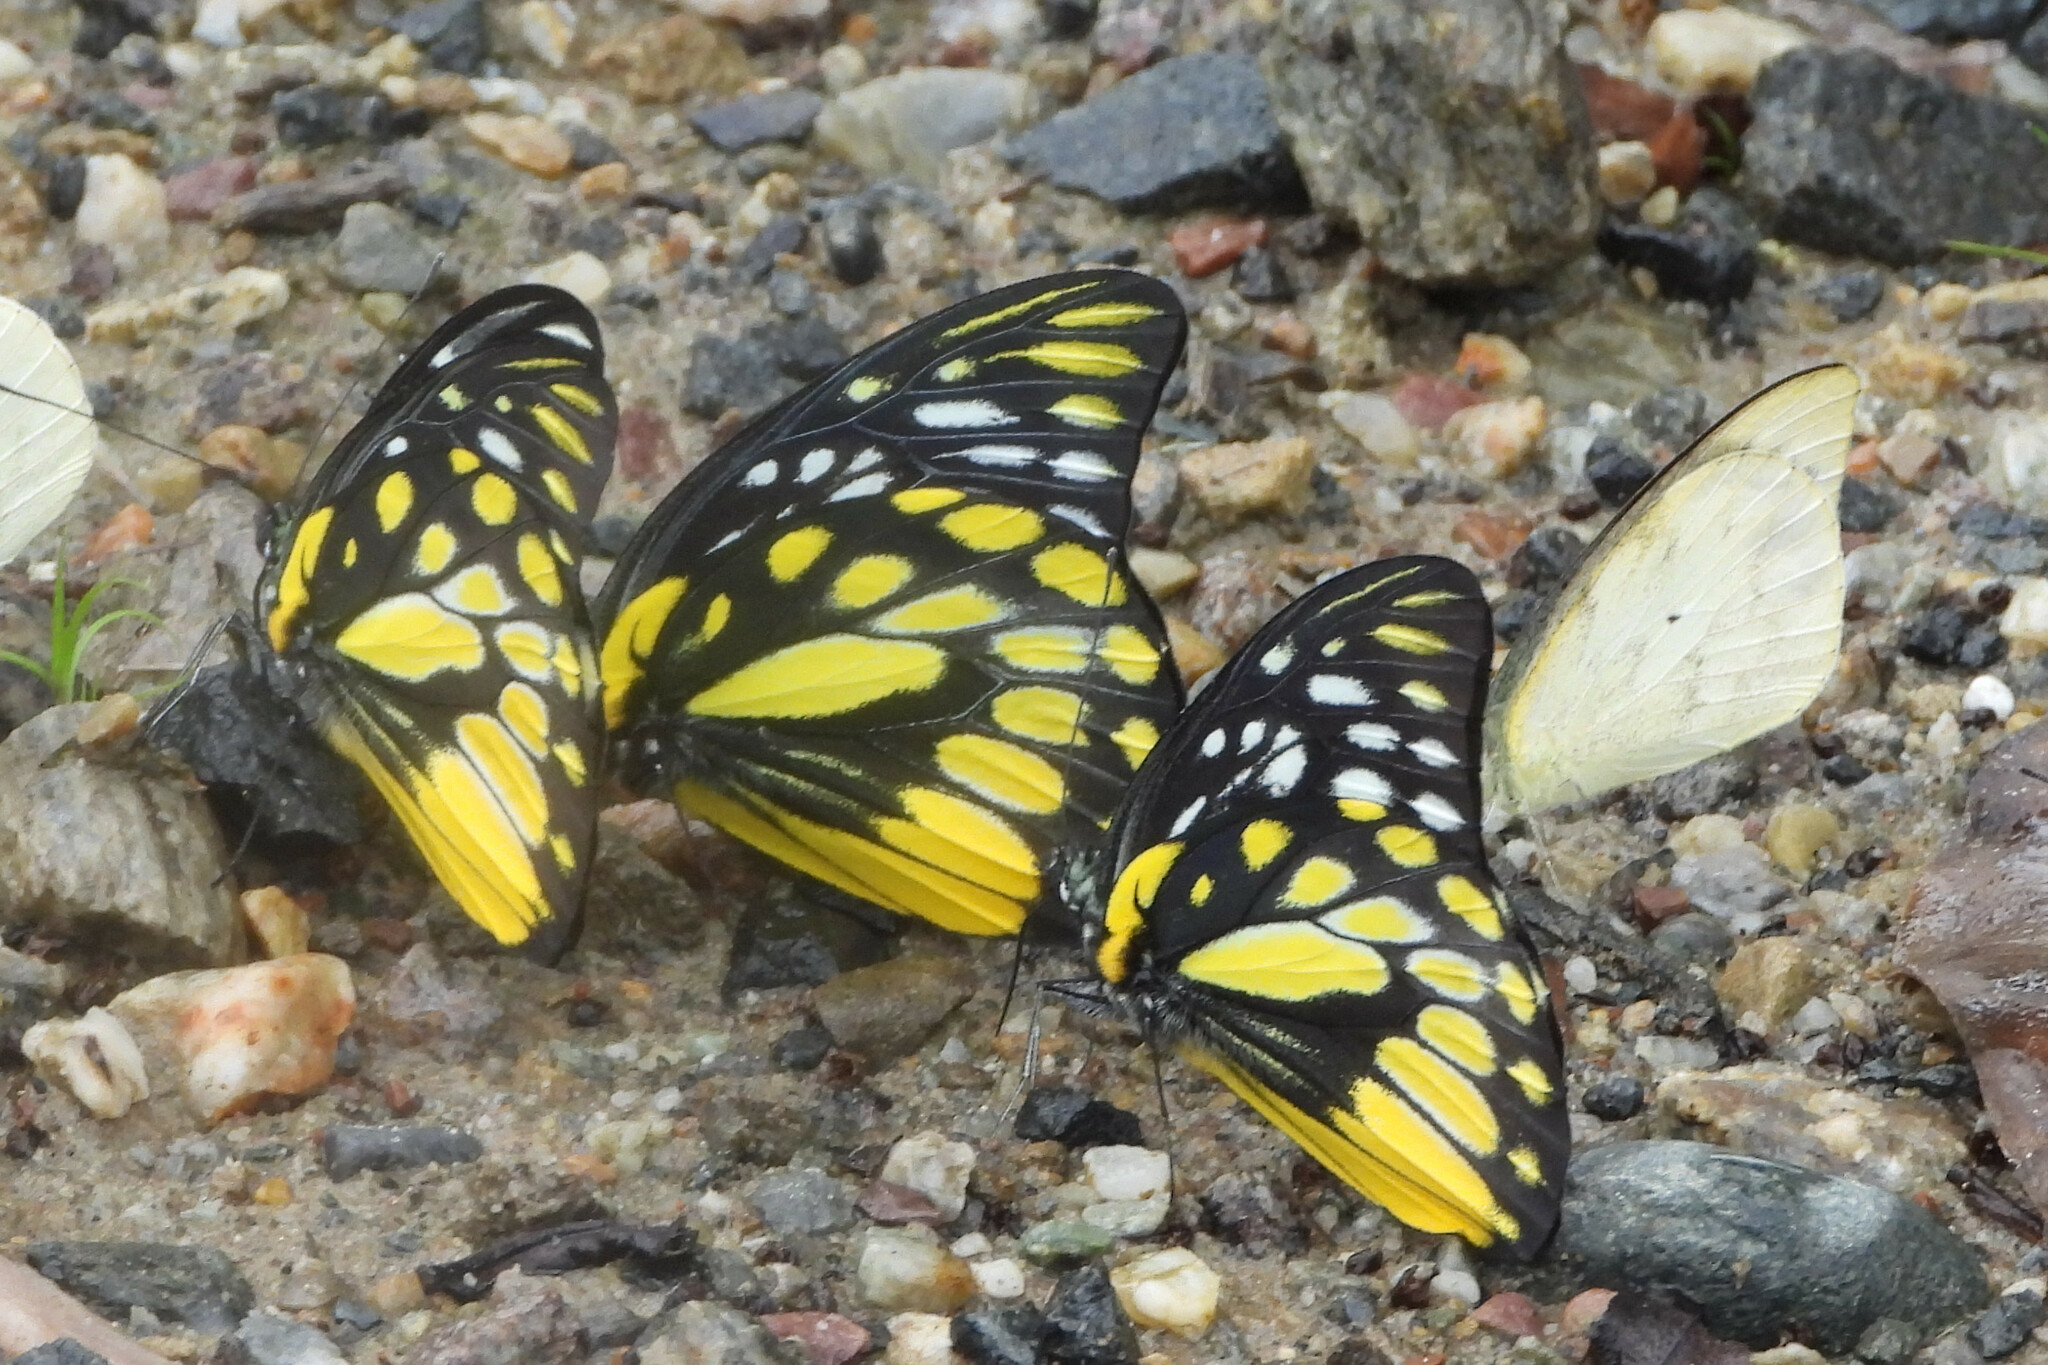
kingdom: Animalia
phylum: Arthropoda
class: Insecta
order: Lepidoptera
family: Pieridae
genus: Prioneris
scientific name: Prioneris thestylis
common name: Spotted sawtooth
